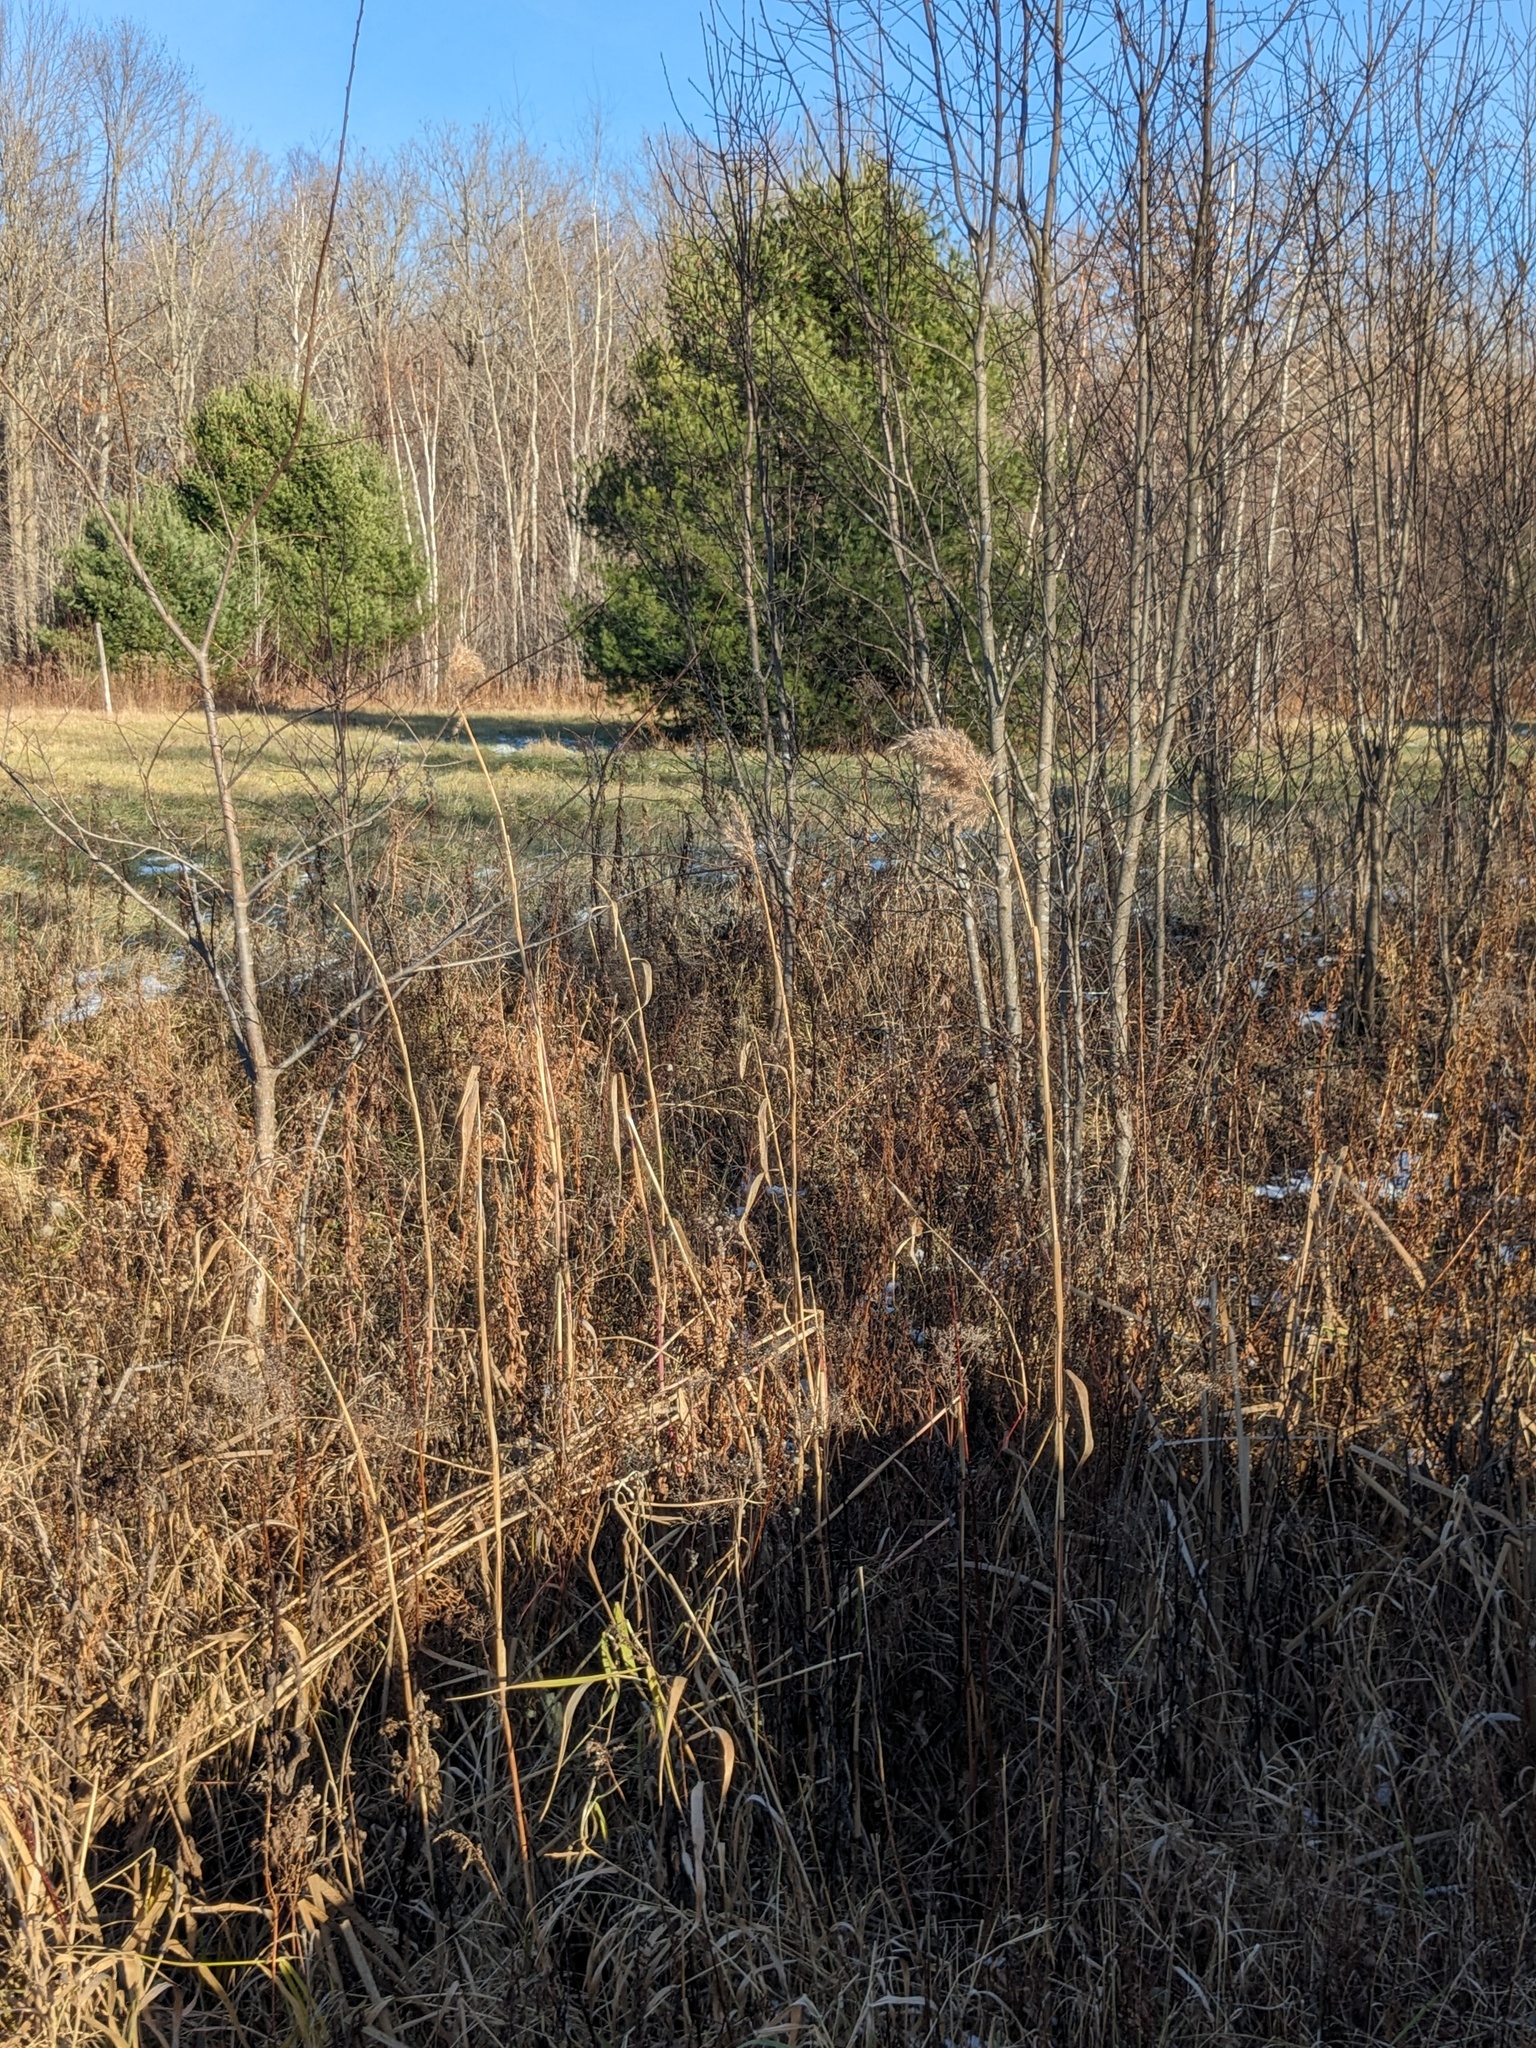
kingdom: Plantae
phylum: Tracheophyta
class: Liliopsida
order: Poales
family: Poaceae
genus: Phragmites
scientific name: Phragmites australis
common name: Common reed
